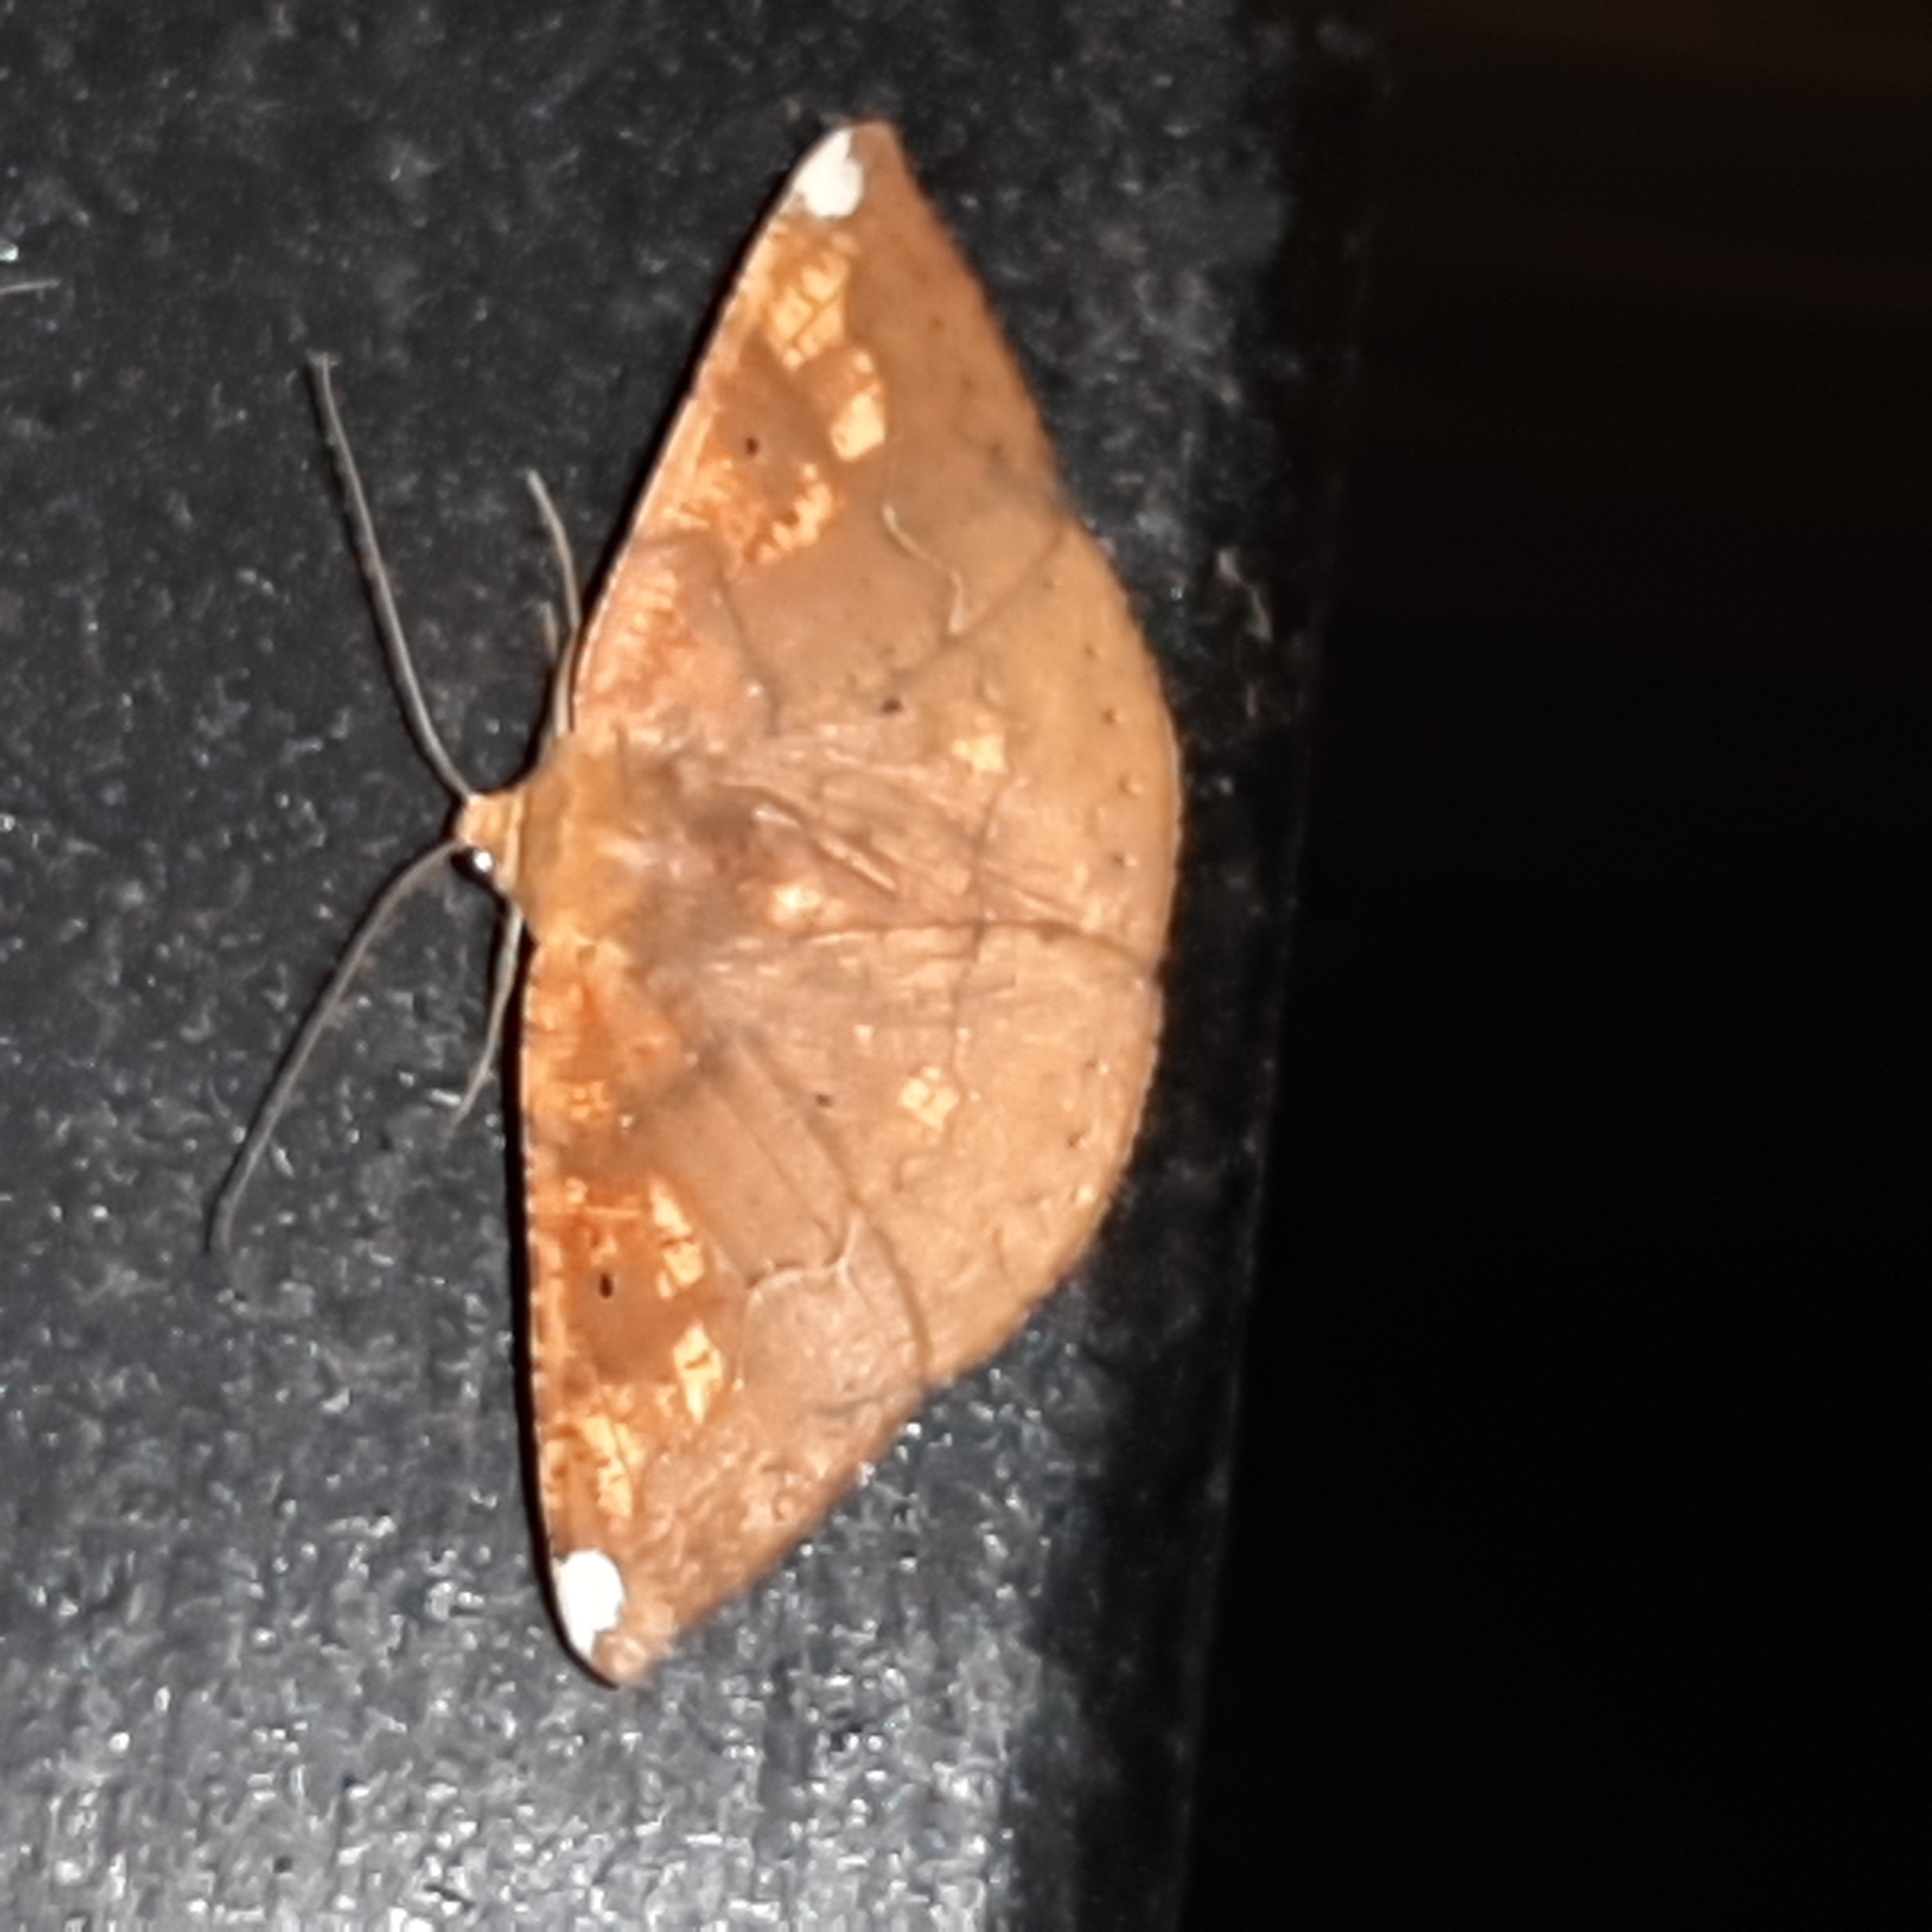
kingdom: Animalia
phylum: Arthropoda
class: Insecta
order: Lepidoptera
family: Geometridae
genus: Acrosemia
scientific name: Acrosemia tigrata
